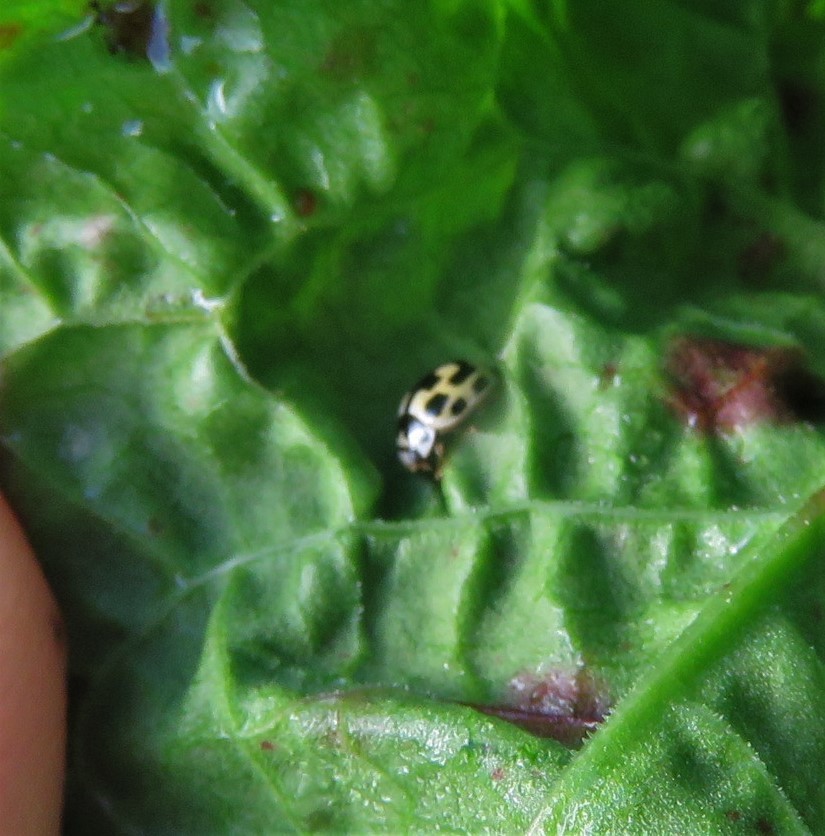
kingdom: Animalia
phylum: Arthropoda
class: Insecta
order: Coleoptera
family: Coccinellidae
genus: Propylaea
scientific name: Propylaea quatuordecimpunctata
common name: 14-spotted ladybird beetle
